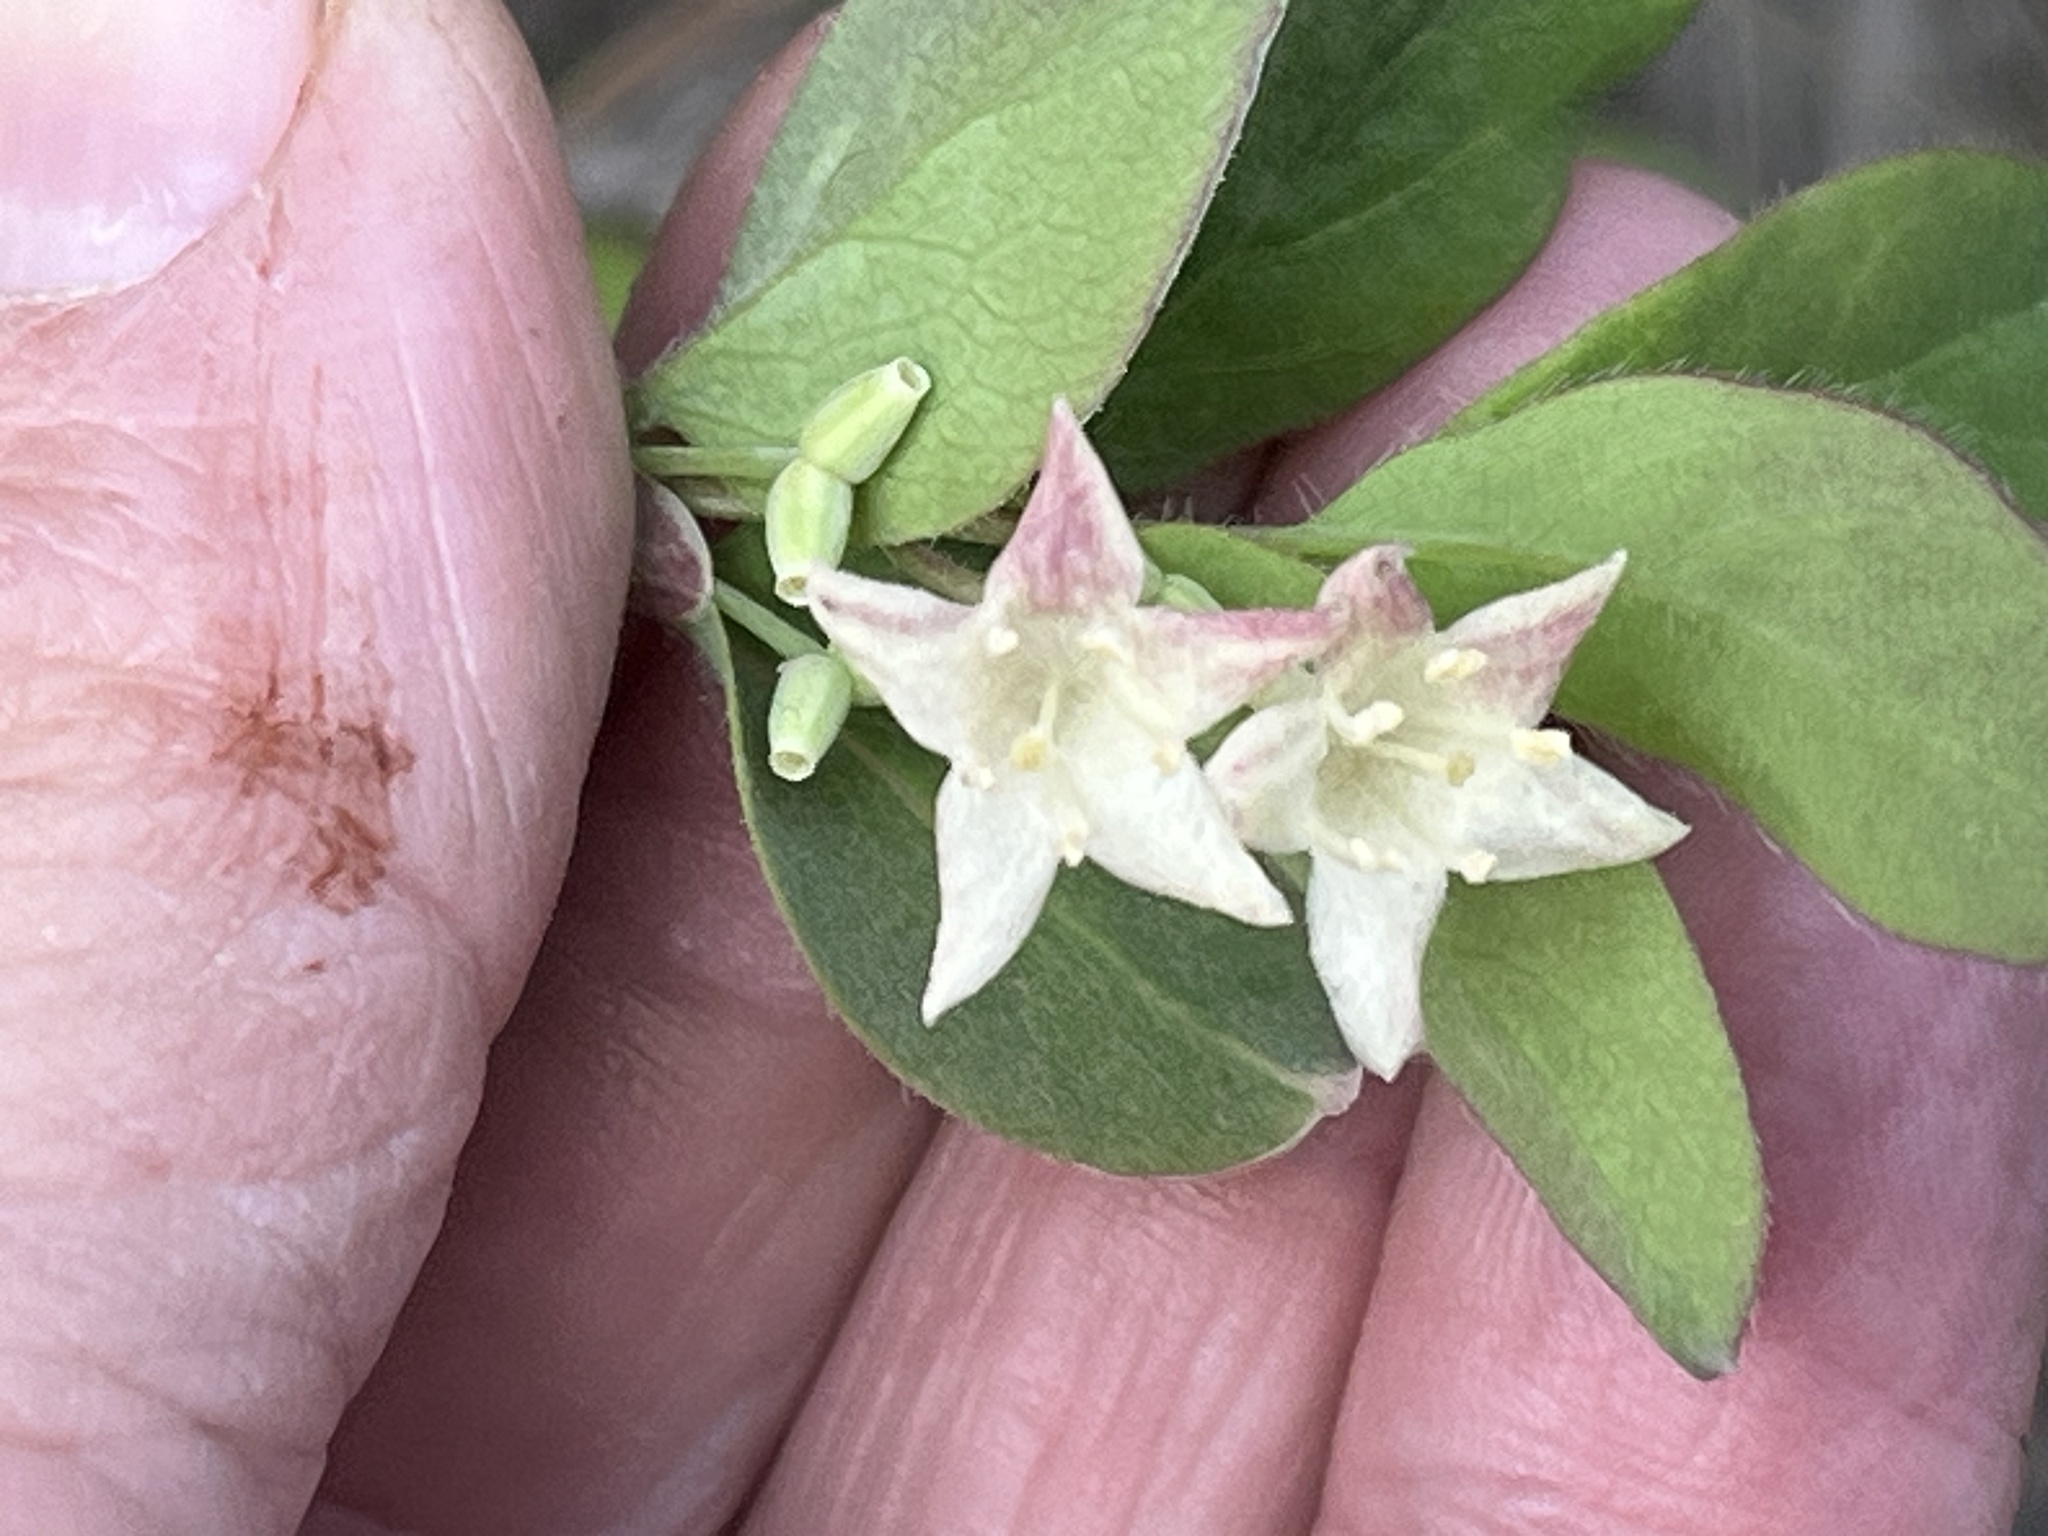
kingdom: Plantae
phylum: Tracheophyta
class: Magnoliopsida
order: Dipsacales
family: Caprifoliaceae
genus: Lonicera
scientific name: Lonicera utahensis
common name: Utah honeysuckle
